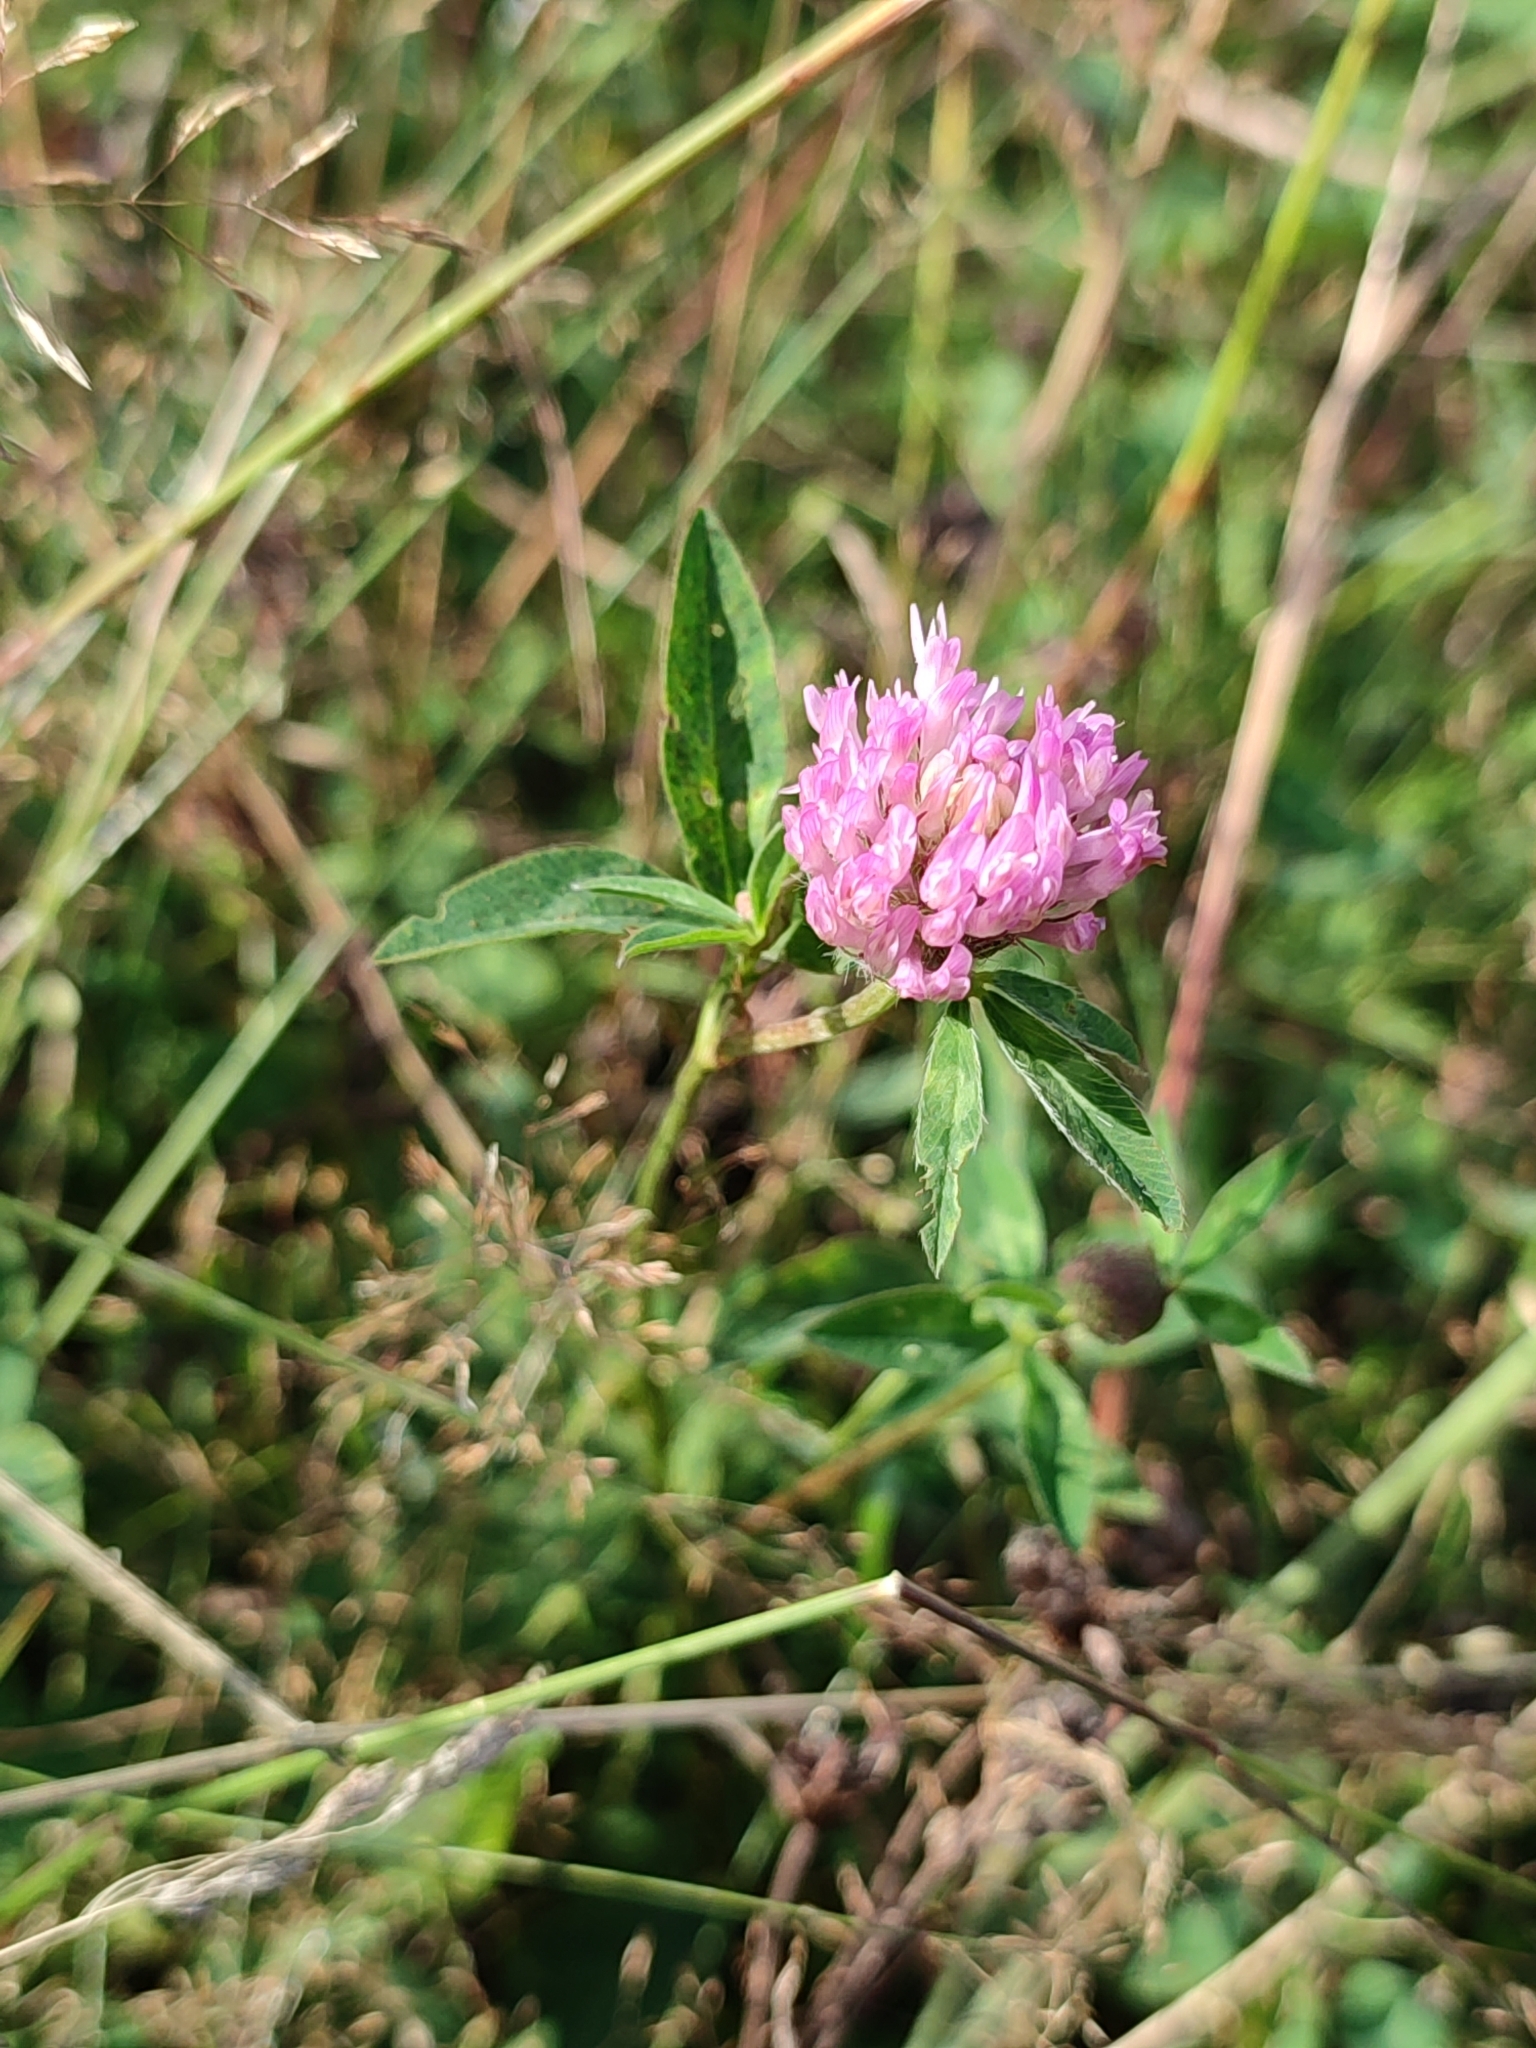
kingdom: Plantae
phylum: Tracheophyta
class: Magnoliopsida
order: Fabales
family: Fabaceae
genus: Trifolium
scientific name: Trifolium pratense
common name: Red clover
